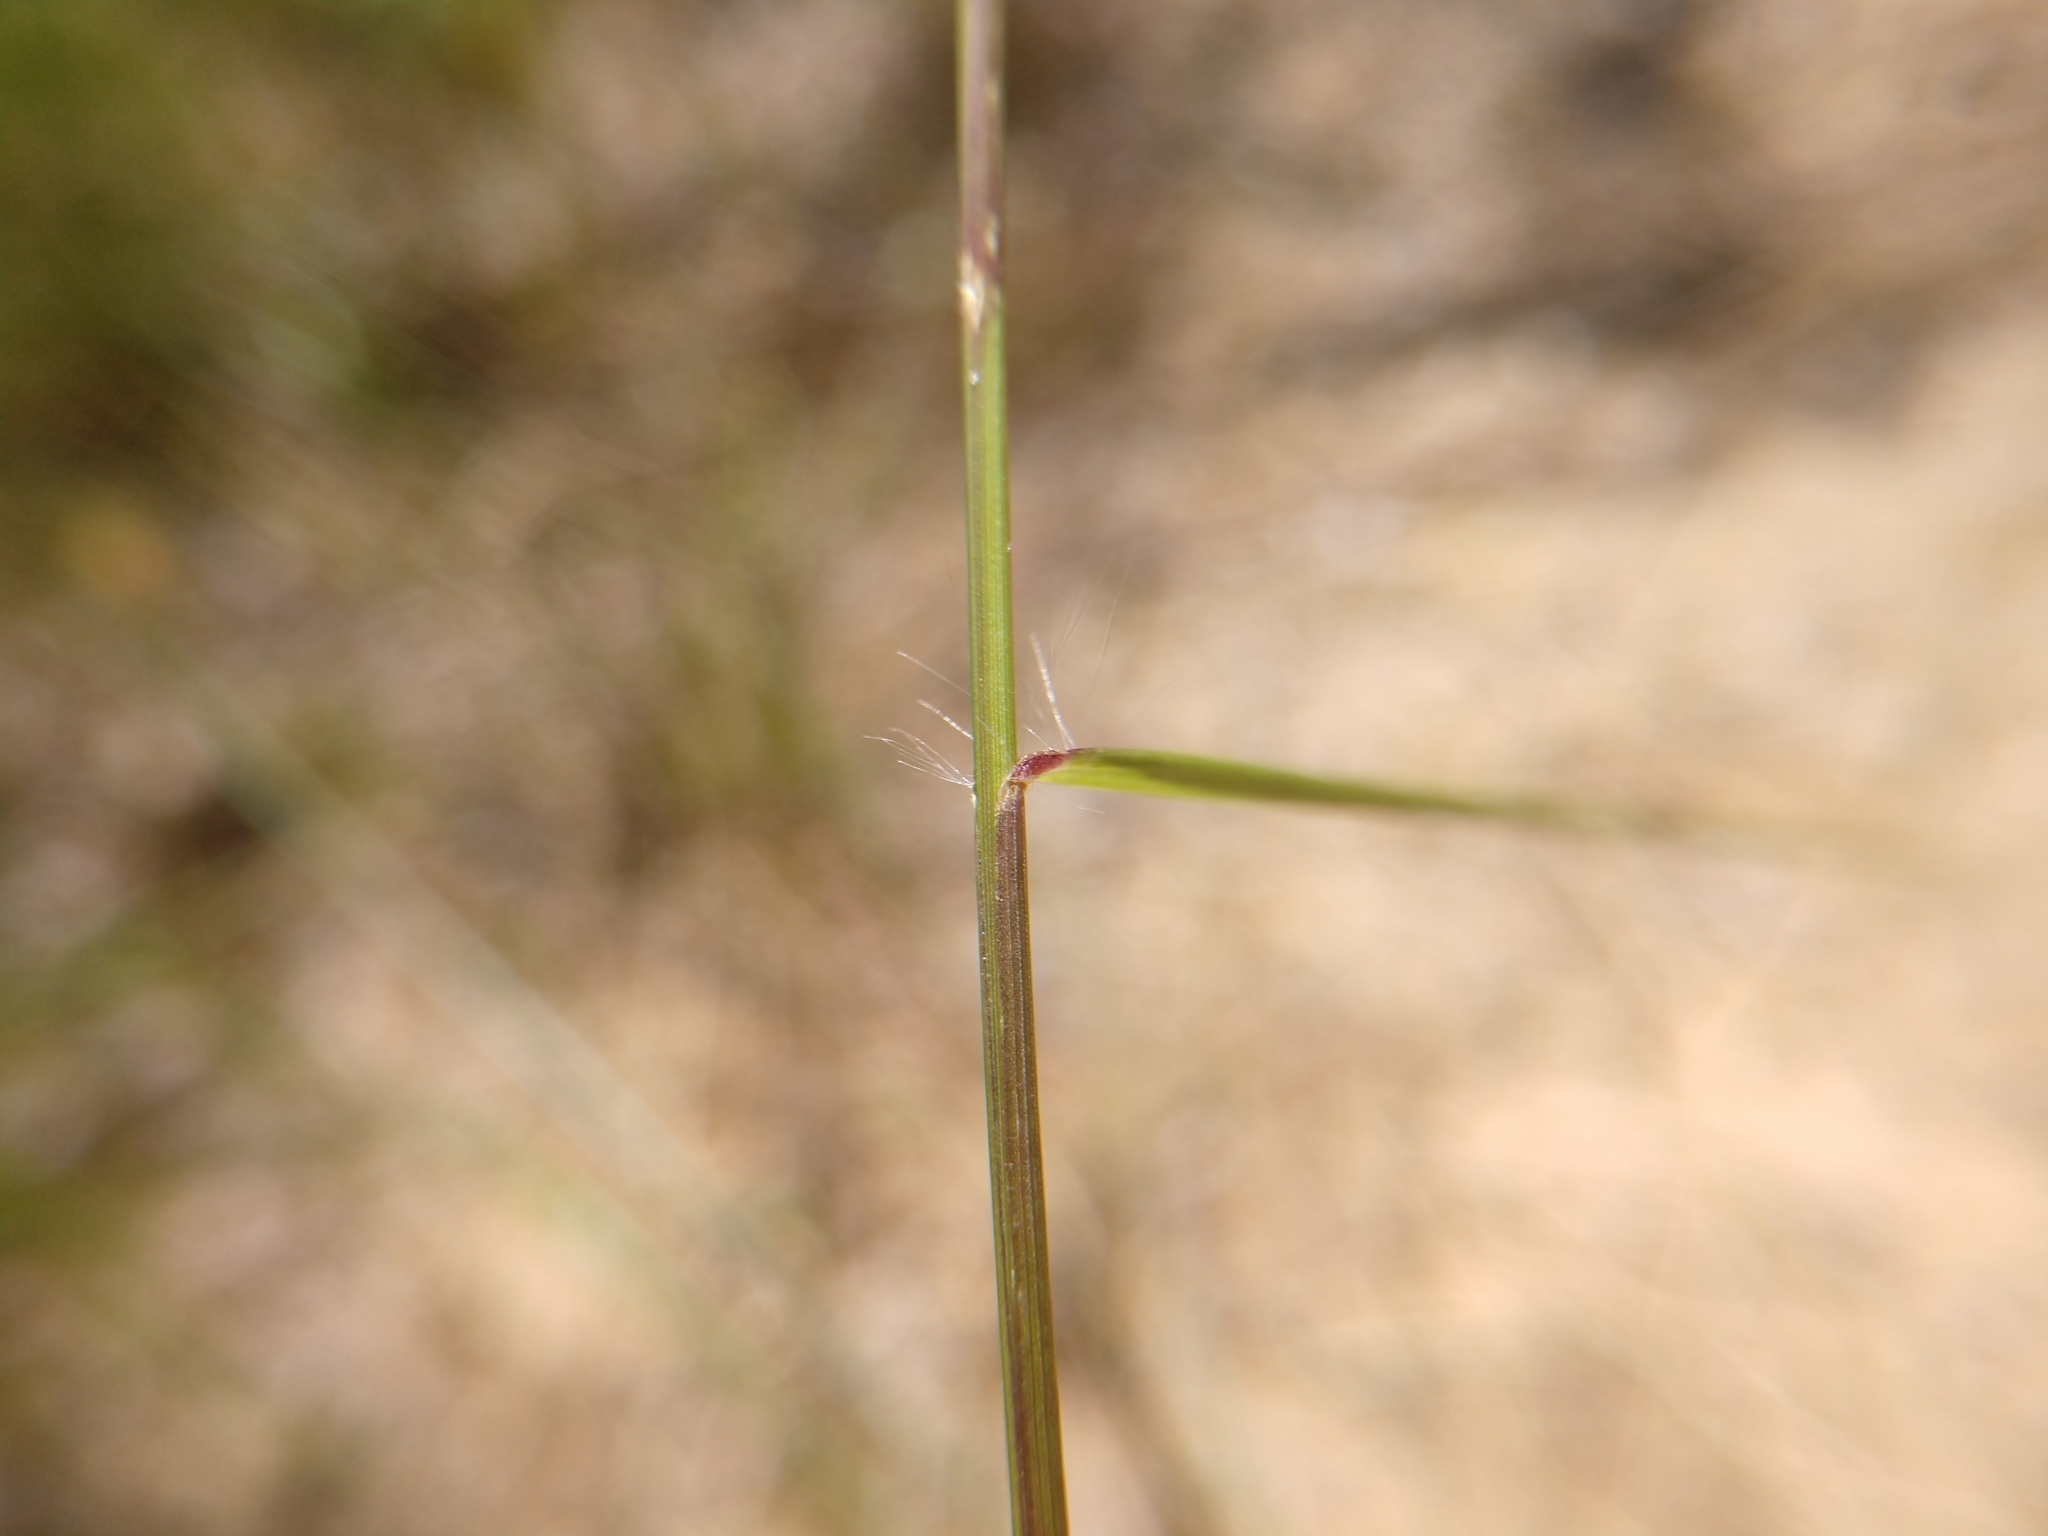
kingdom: Plantae
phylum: Tracheophyta
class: Liliopsida
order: Poales
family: Poaceae
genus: Eragrostis
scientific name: Eragrostis intermedia
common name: Plains love grass
